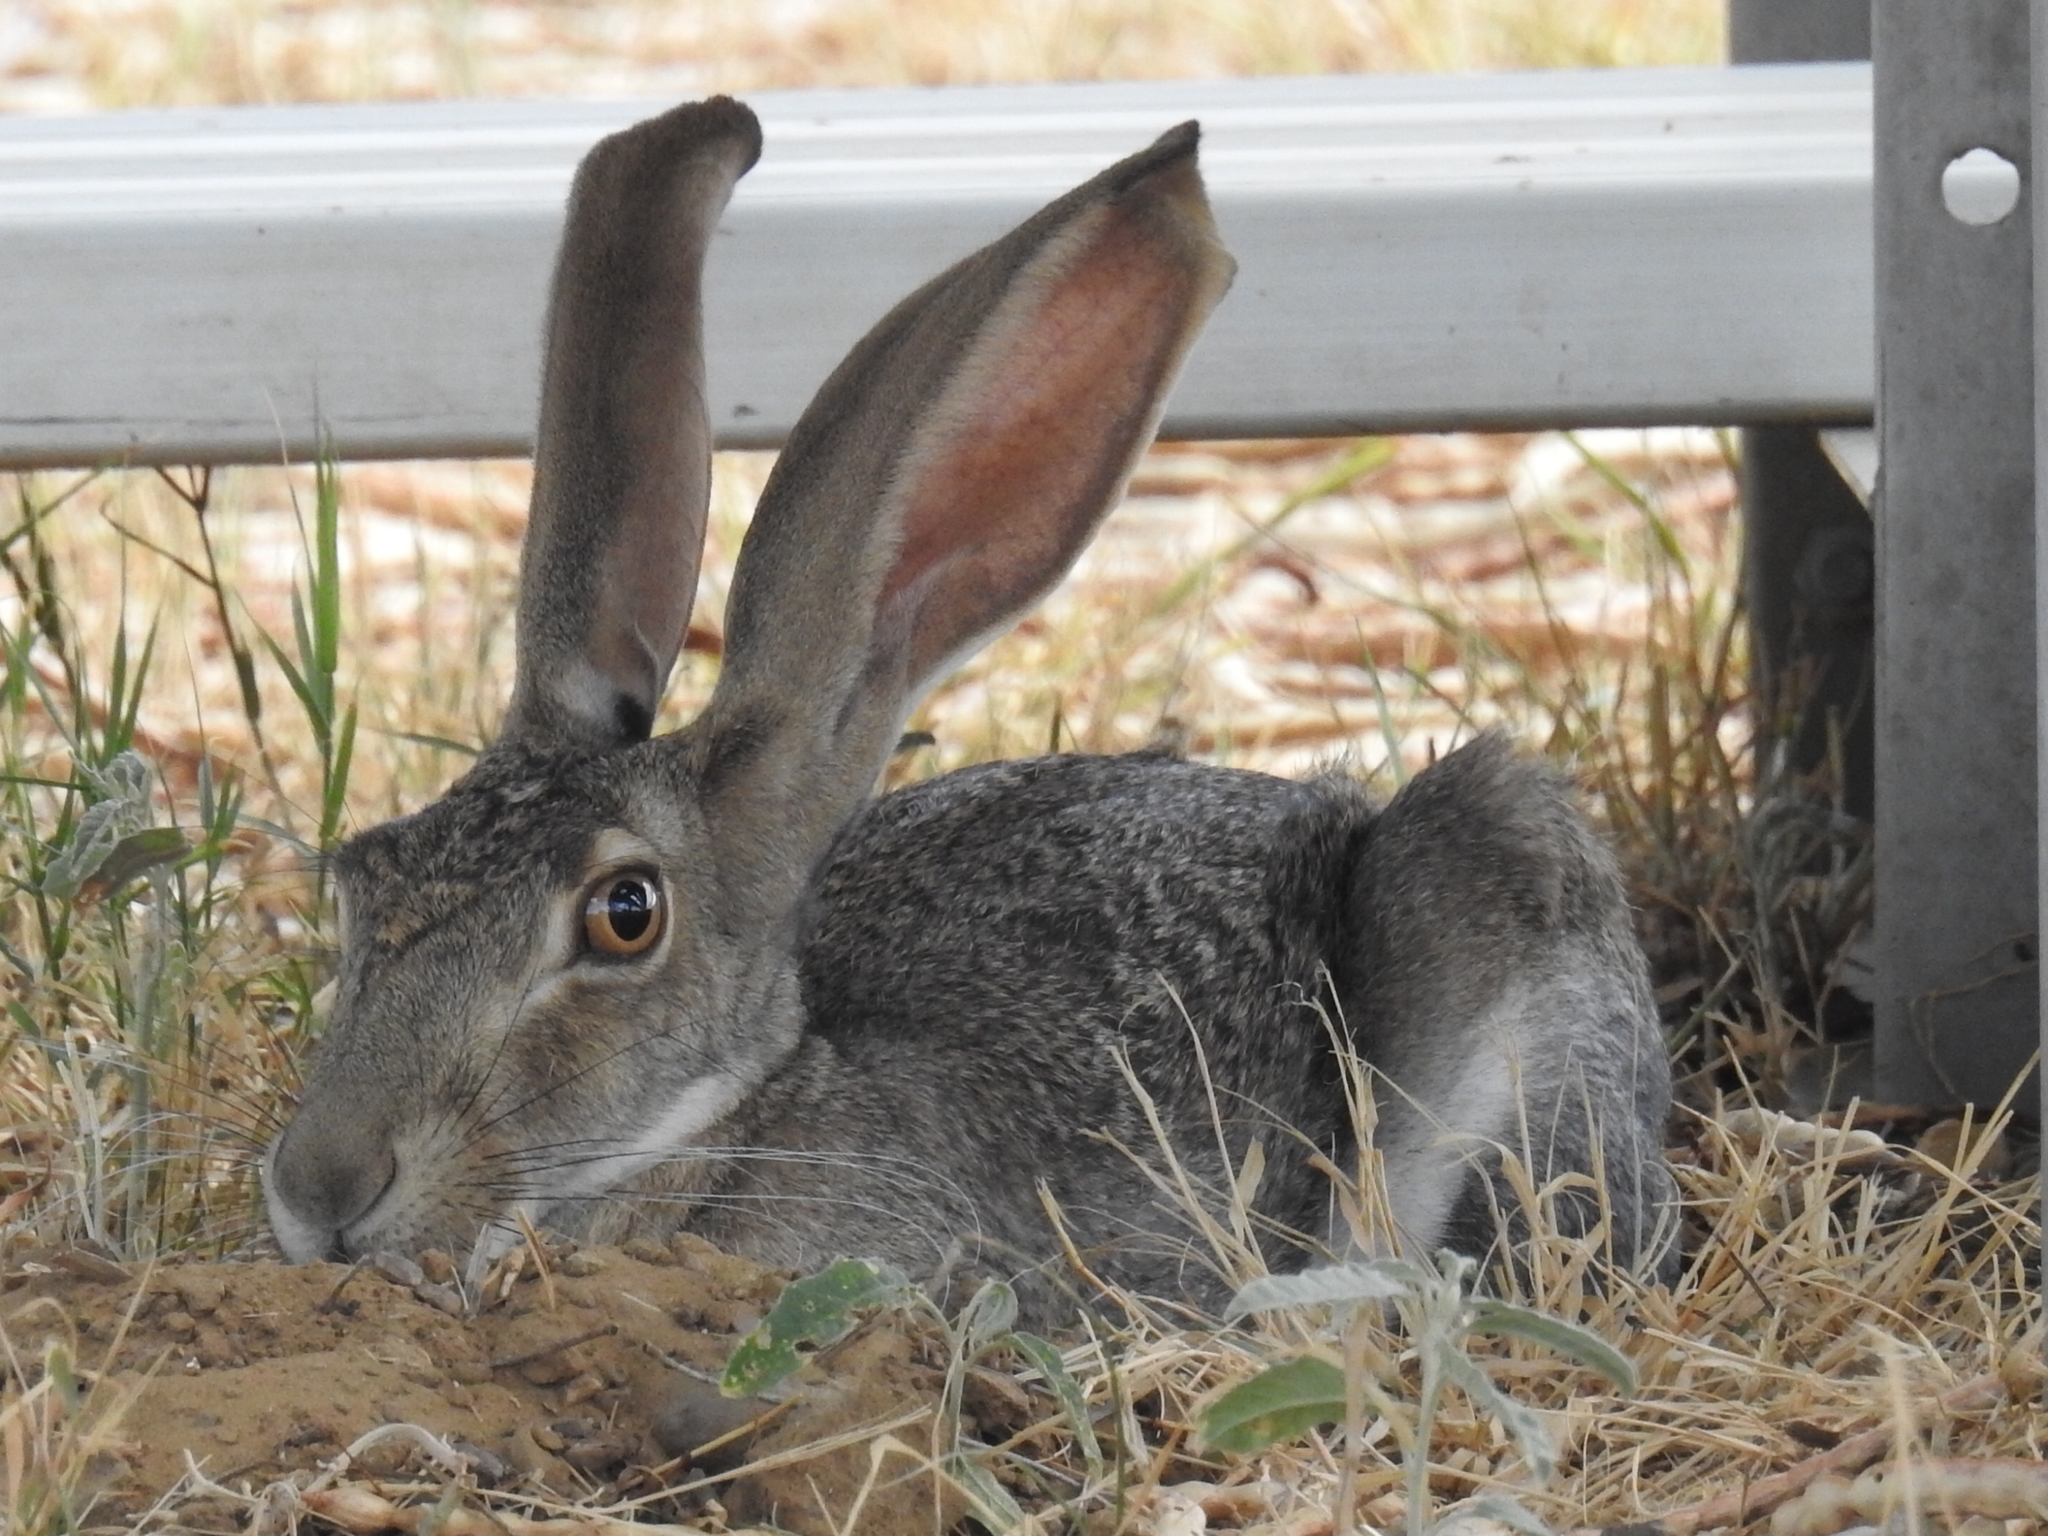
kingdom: Animalia
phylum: Chordata
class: Mammalia
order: Lagomorpha
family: Leporidae
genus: Lepus
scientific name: Lepus californicus
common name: Black-tailed jackrabbit
